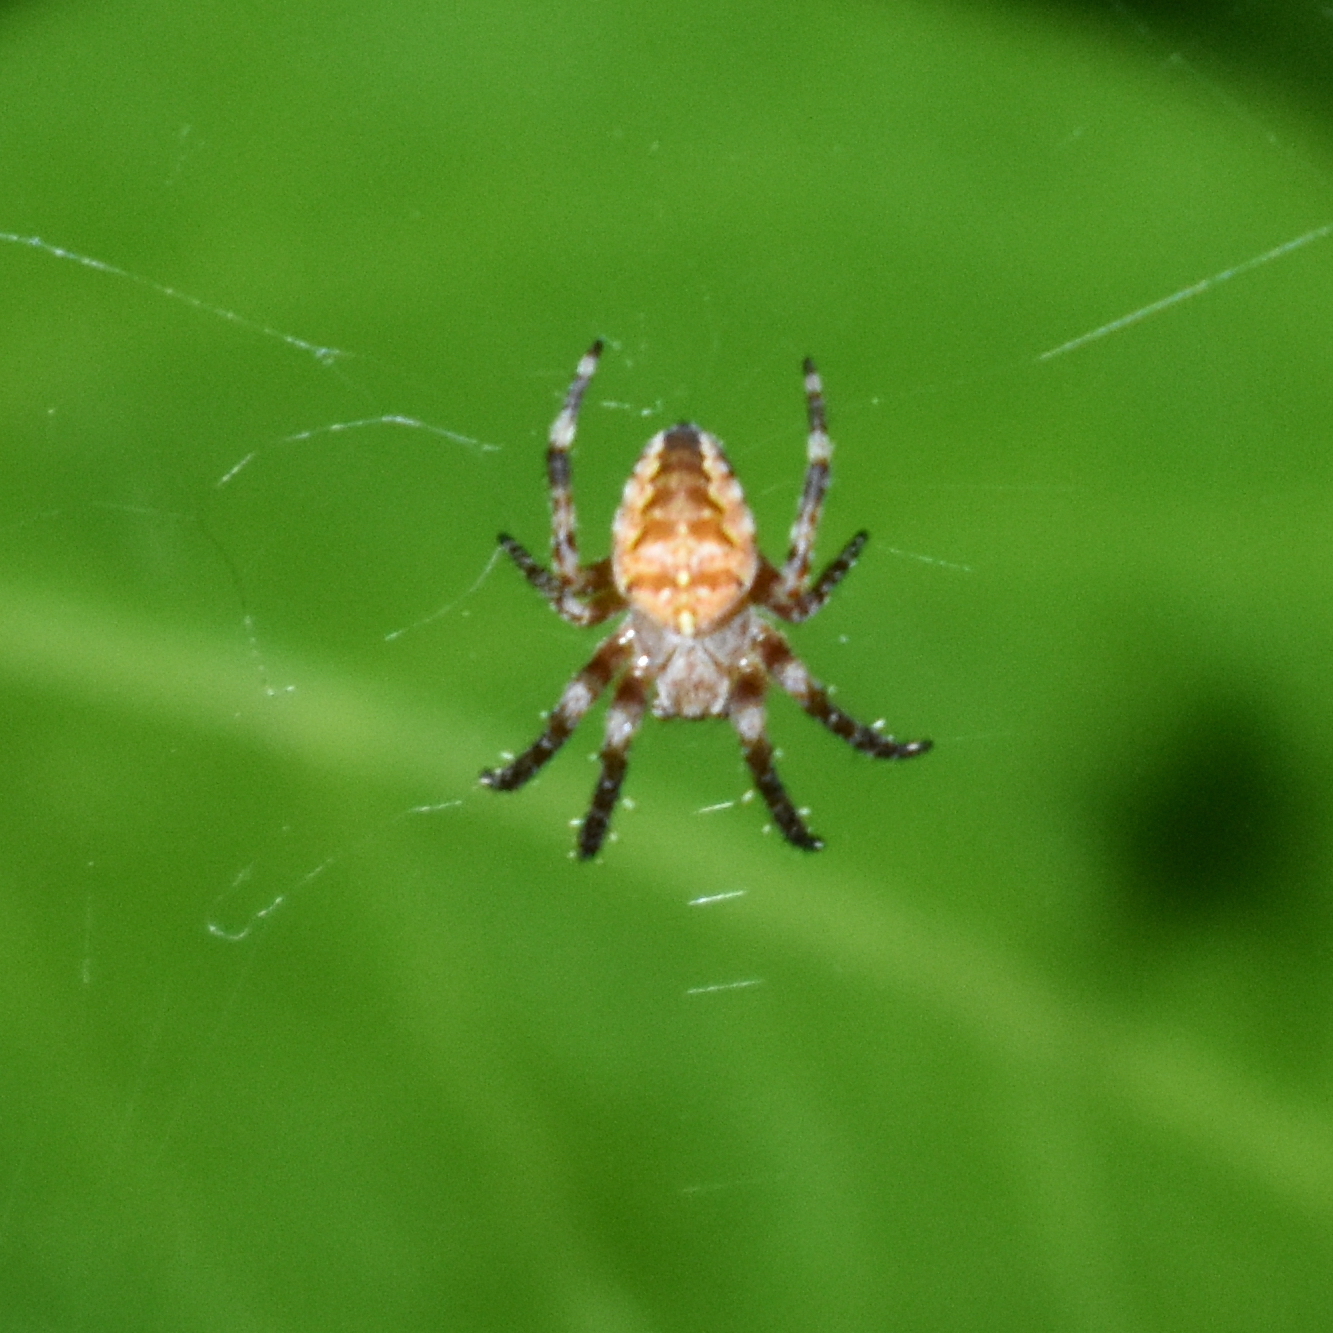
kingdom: Animalia
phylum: Arthropoda
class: Arachnida
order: Araneae
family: Araneidae
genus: Araneus
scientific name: Araneus diadematus
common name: Cross orbweaver
